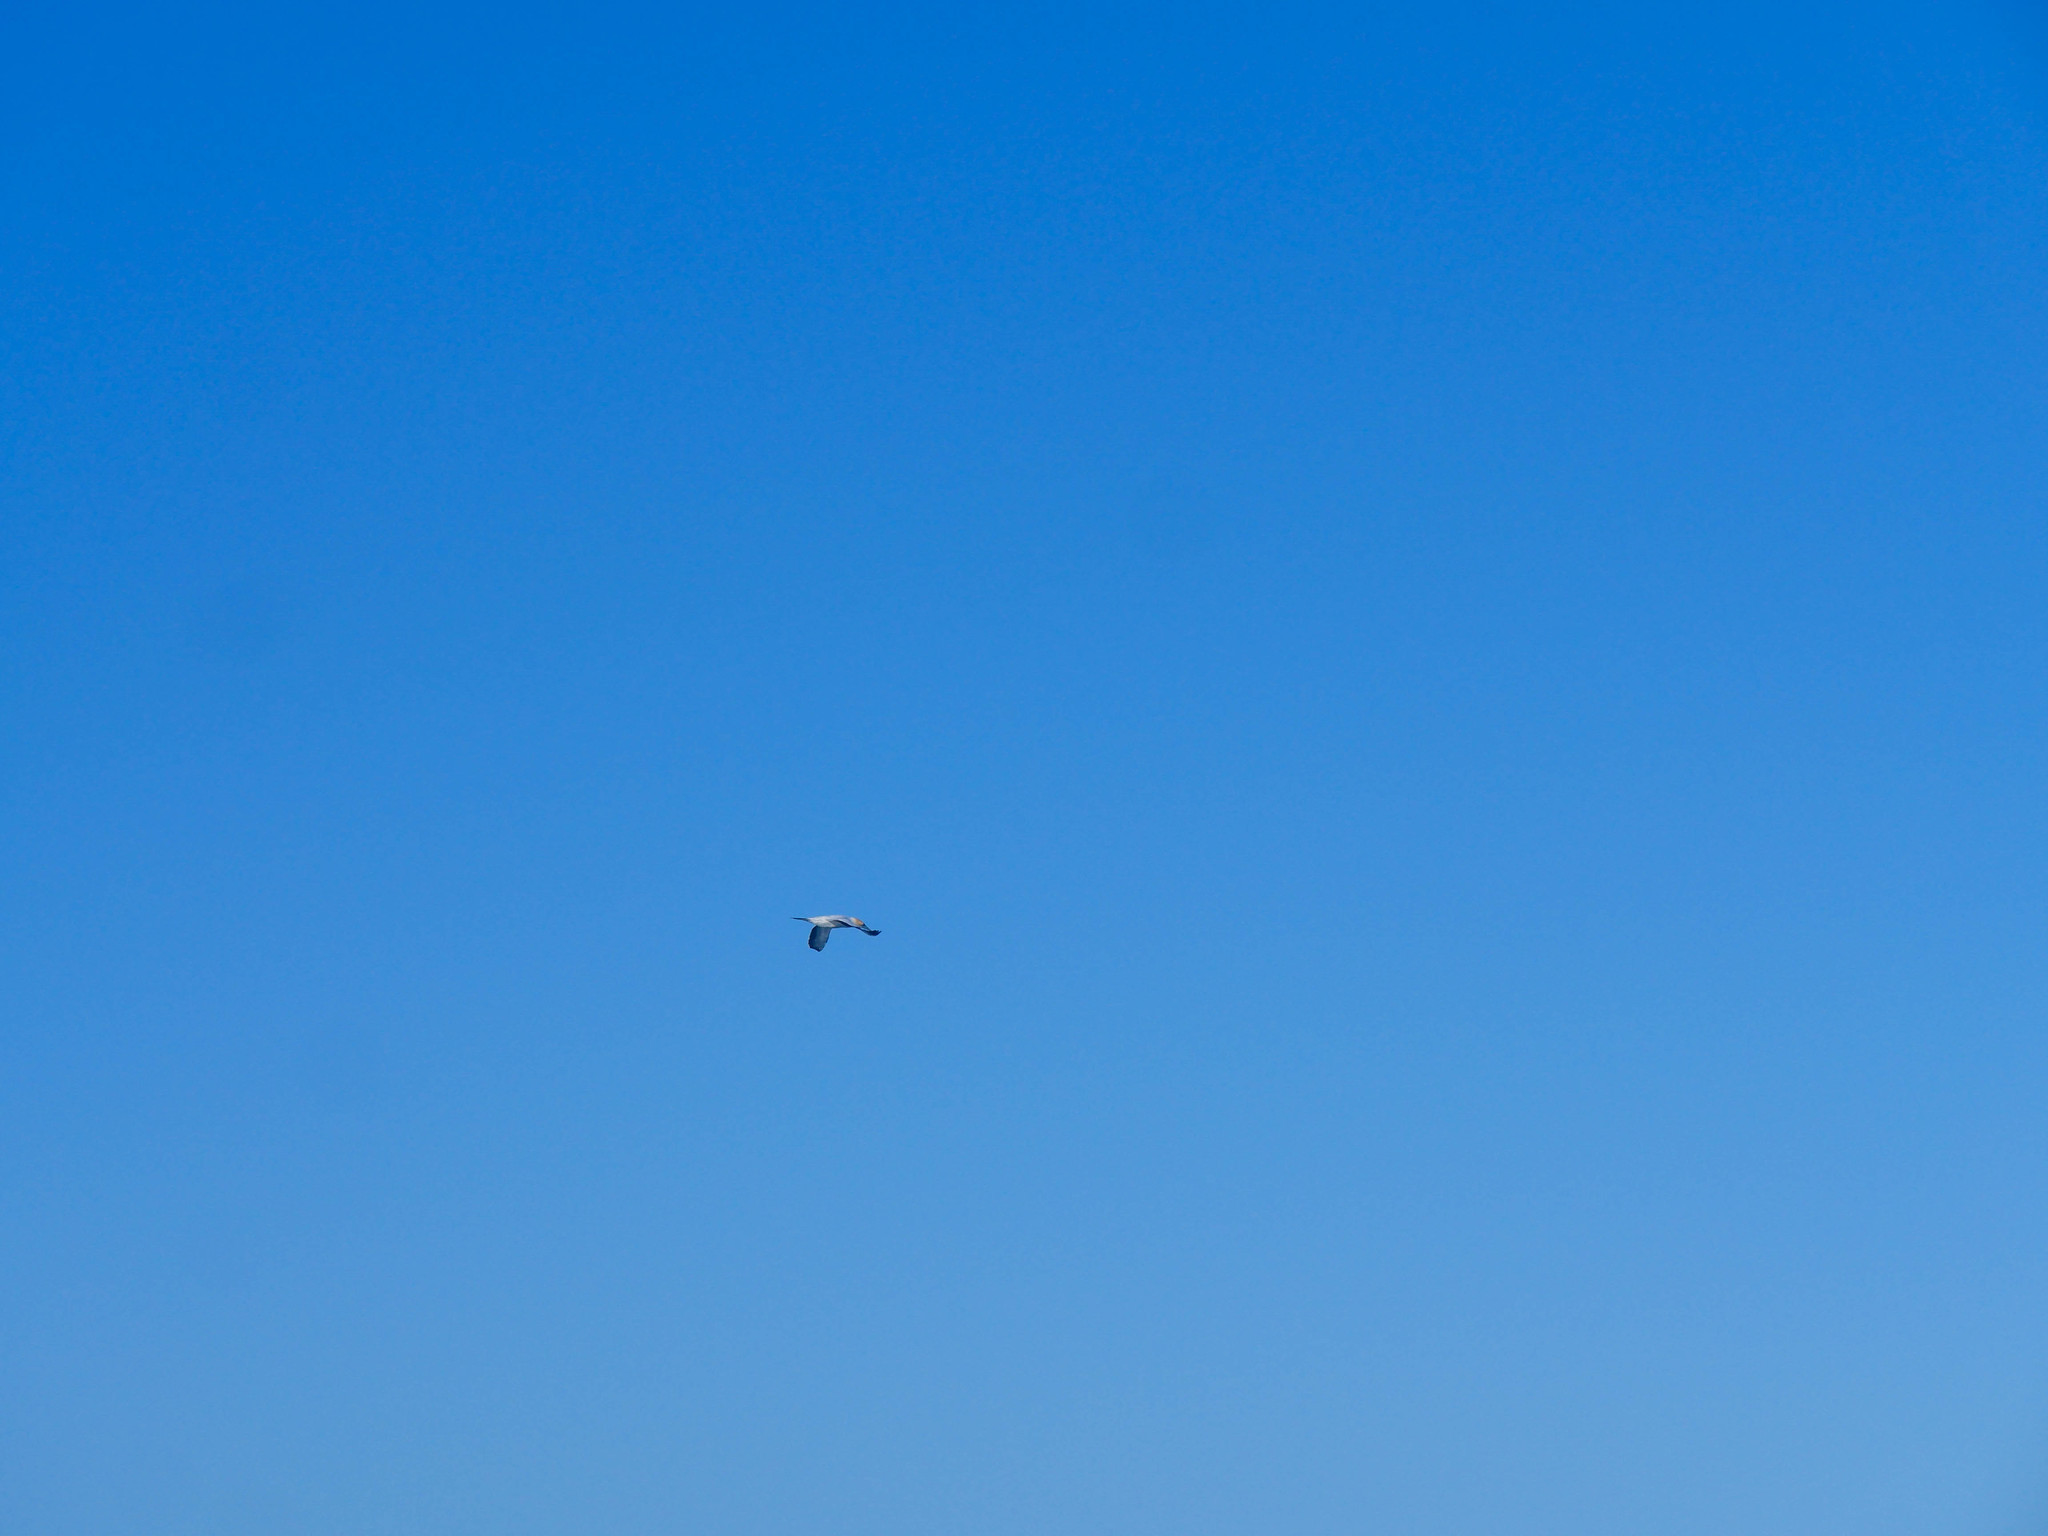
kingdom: Animalia
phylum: Chordata
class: Aves
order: Suliformes
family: Sulidae
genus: Morus
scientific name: Morus serrator
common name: Australasian gannet
